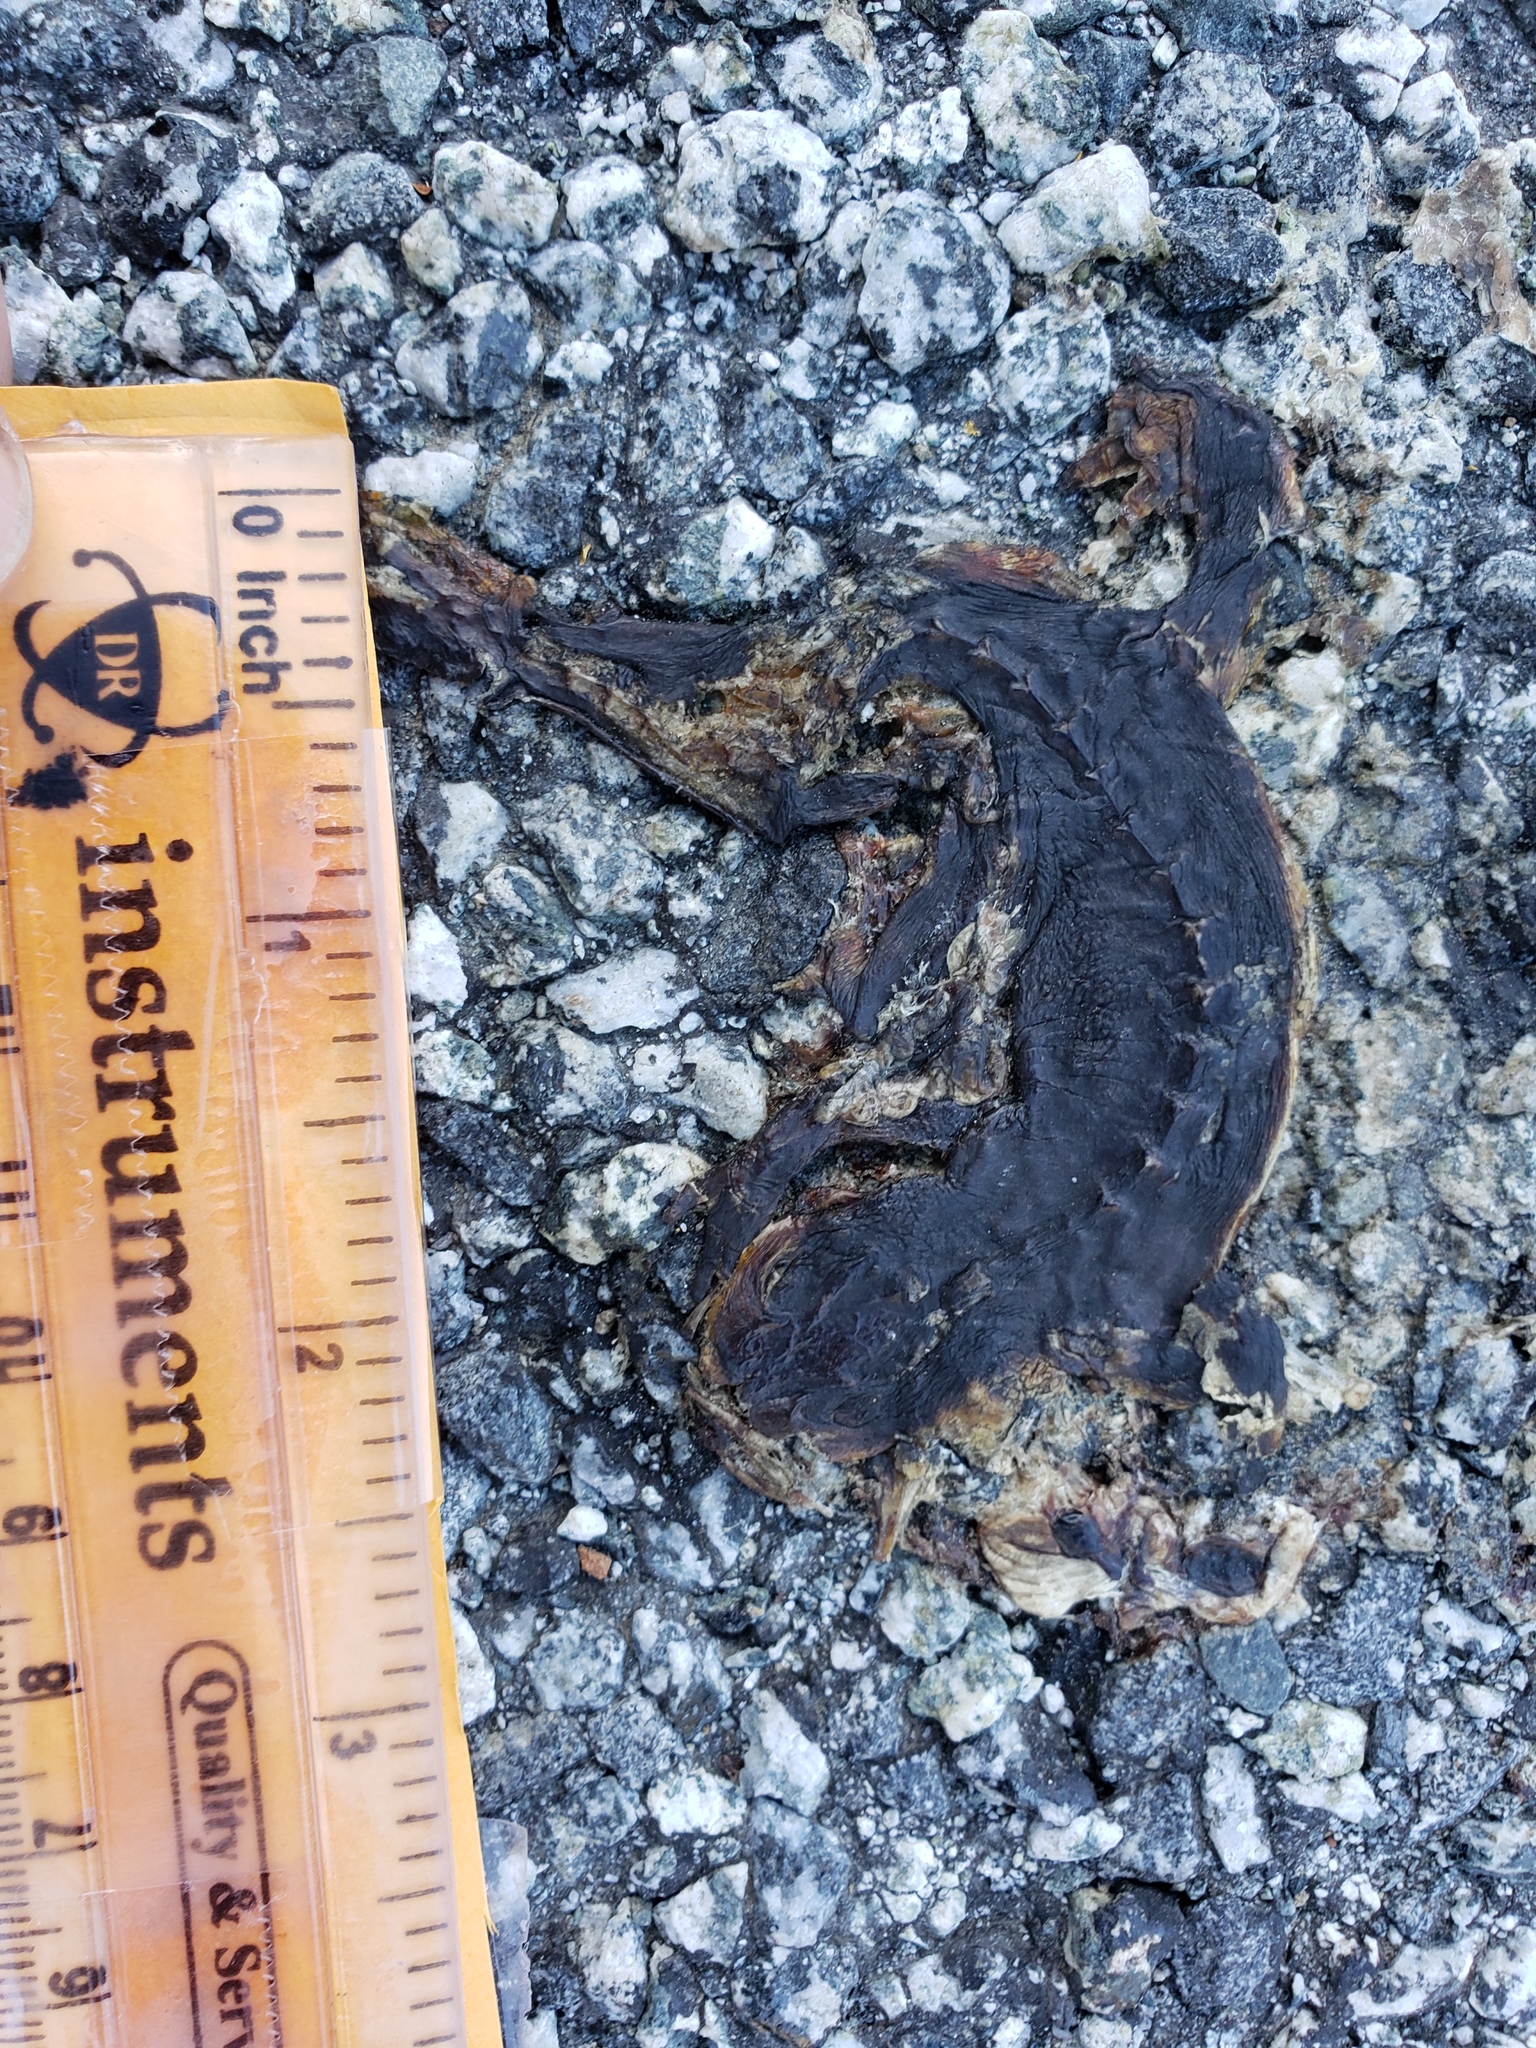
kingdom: Animalia
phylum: Chordata
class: Amphibia
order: Caudata
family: Salamandridae
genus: Taricha
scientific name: Taricha
